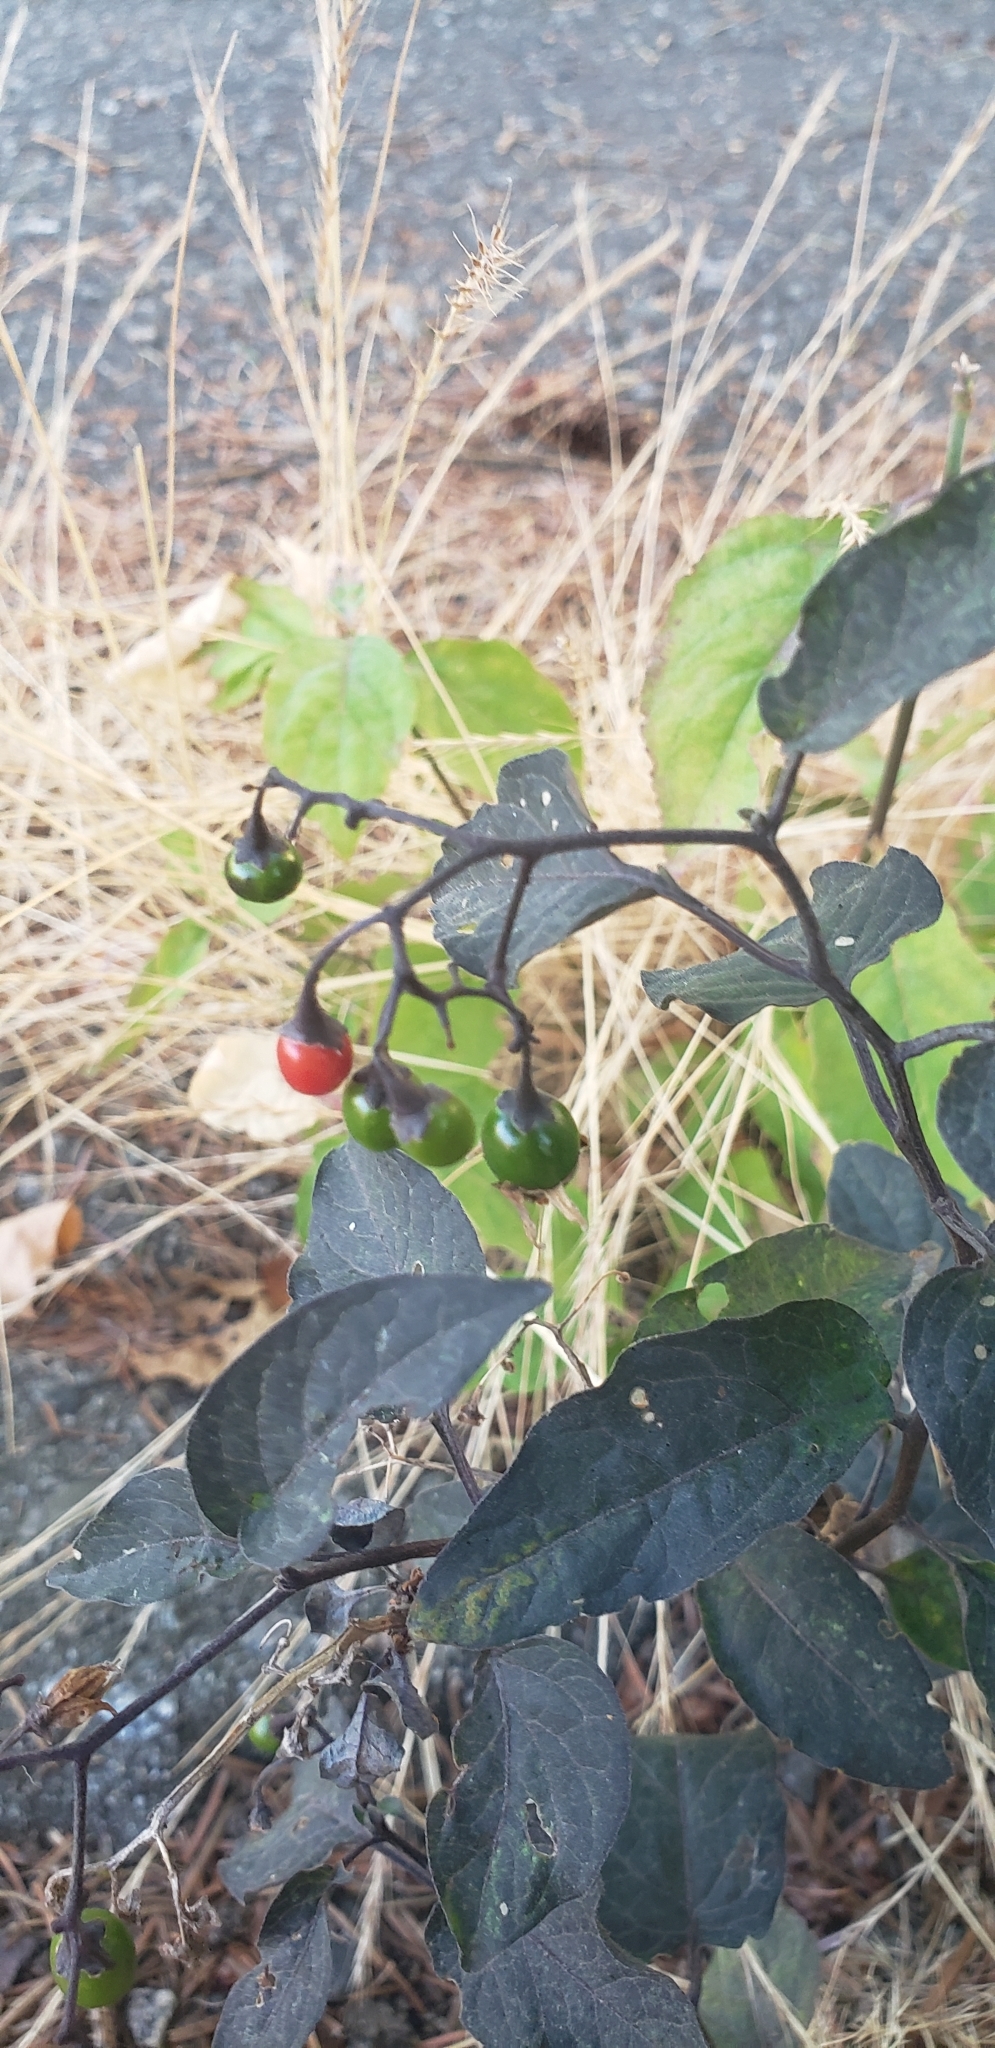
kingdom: Plantae
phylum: Tracheophyta
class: Magnoliopsida
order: Solanales
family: Solanaceae
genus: Solanum
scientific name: Solanum dulcamara
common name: Climbing nightshade
